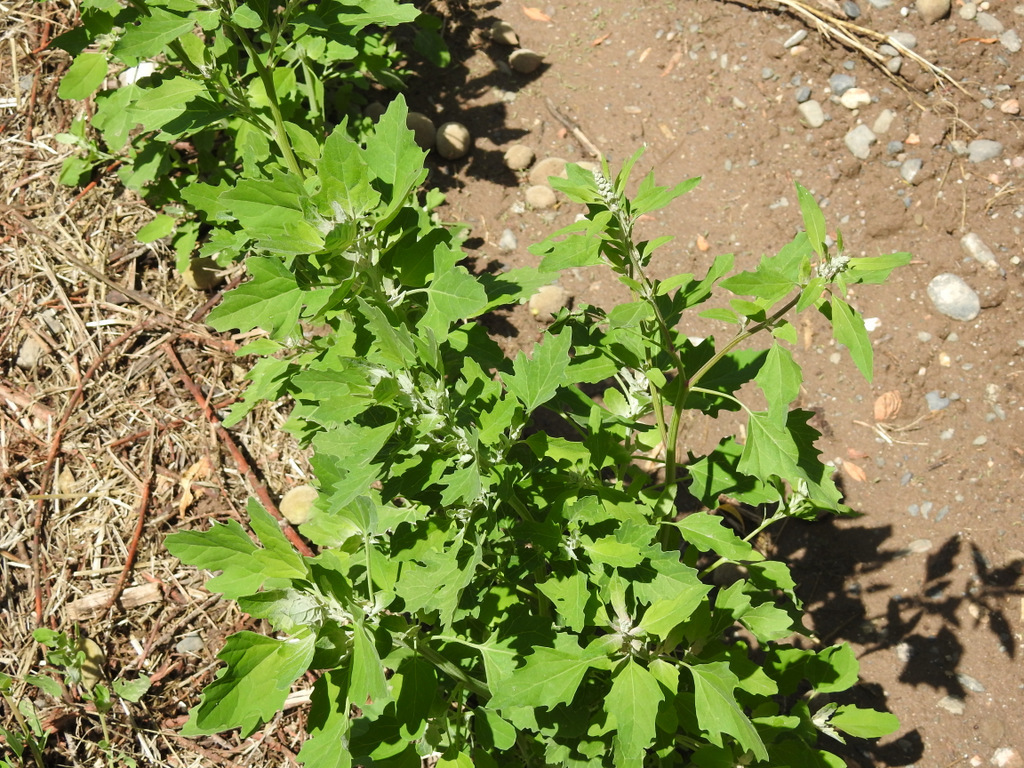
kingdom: Plantae
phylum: Tracheophyta
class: Magnoliopsida
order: Caryophyllales
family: Amaranthaceae
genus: Chenopodium
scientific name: Chenopodium album
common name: Fat-hen
